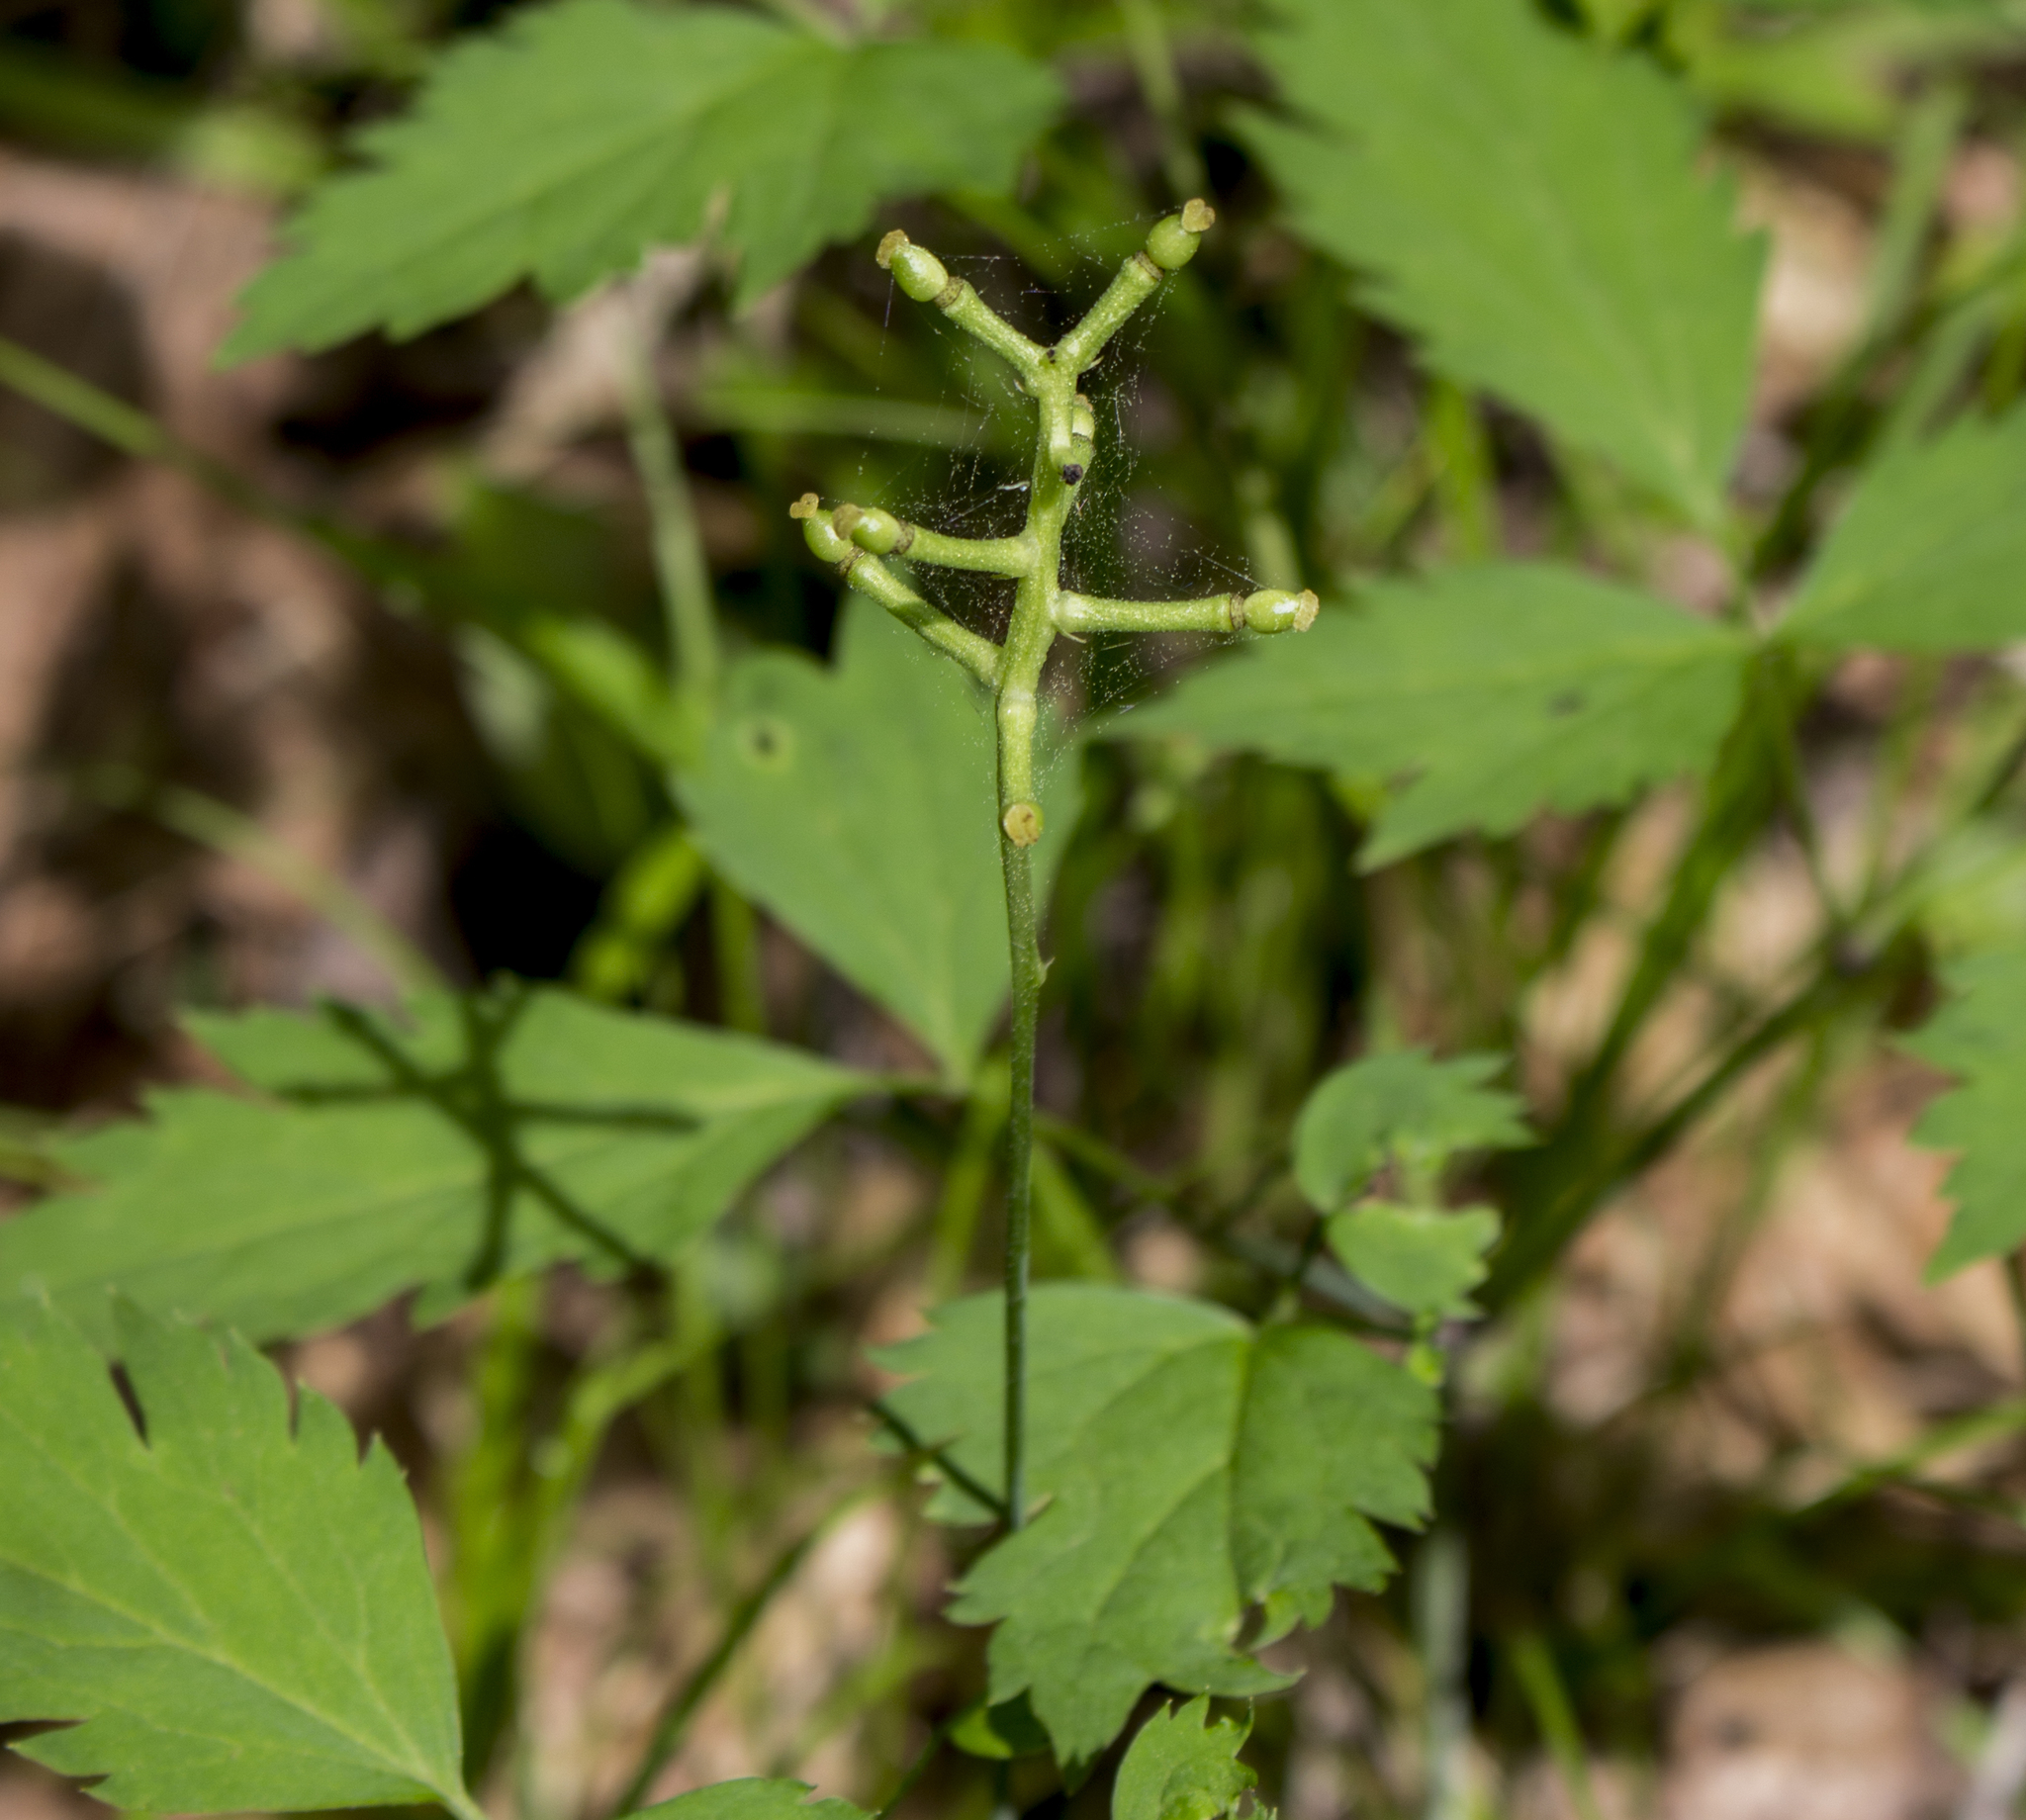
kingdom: Plantae
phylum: Tracheophyta
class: Magnoliopsida
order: Ranunculales
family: Ranunculaceae
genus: Actaea
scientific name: Actaea pachypoda
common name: Doll's-eyes
